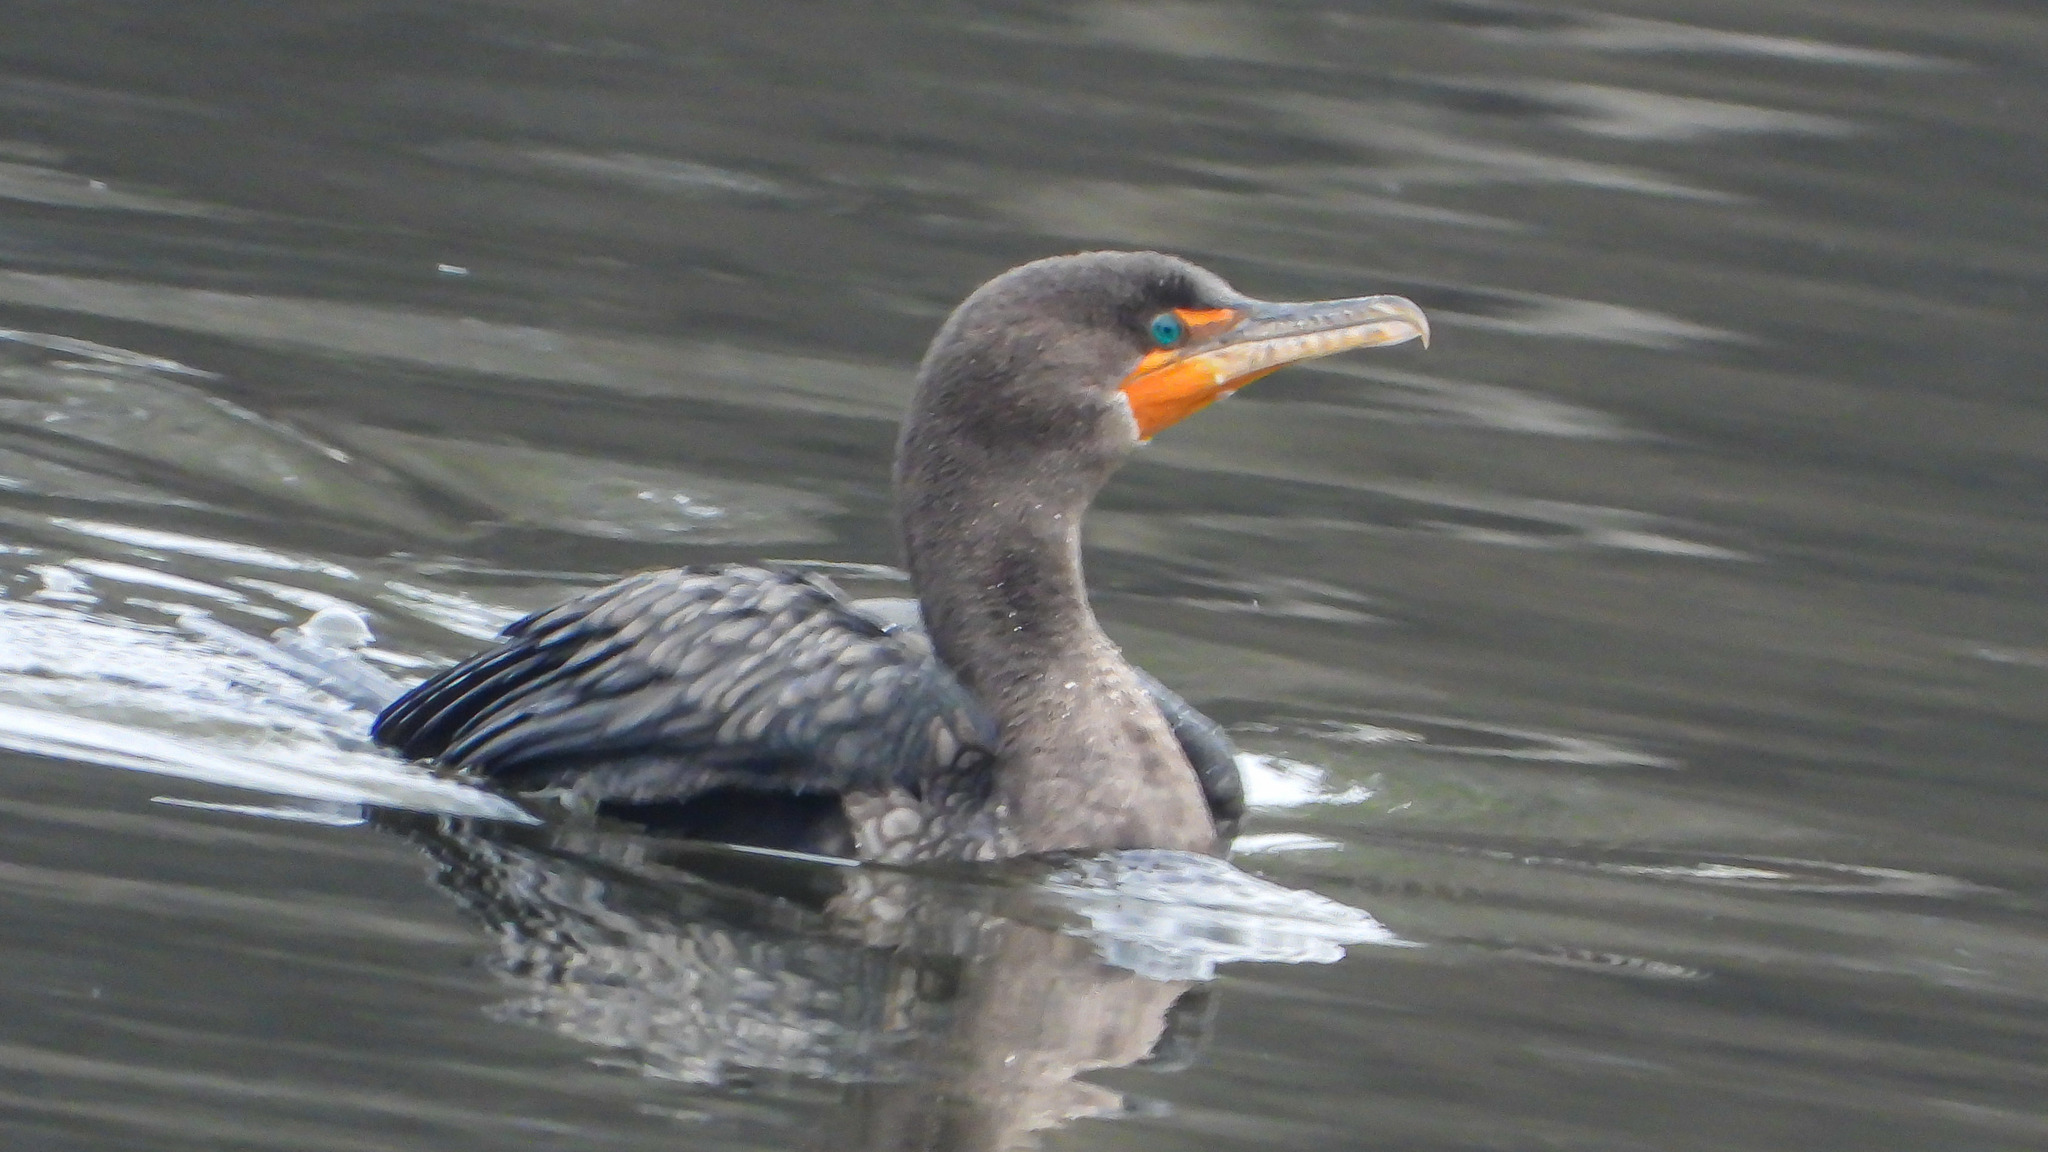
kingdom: Animalia
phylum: Chordata
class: Aves
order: Suliformes
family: Phalacrocoracidae
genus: Phalacrocorax
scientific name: Phalacrocorax auritus
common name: Double-crested cormorant
